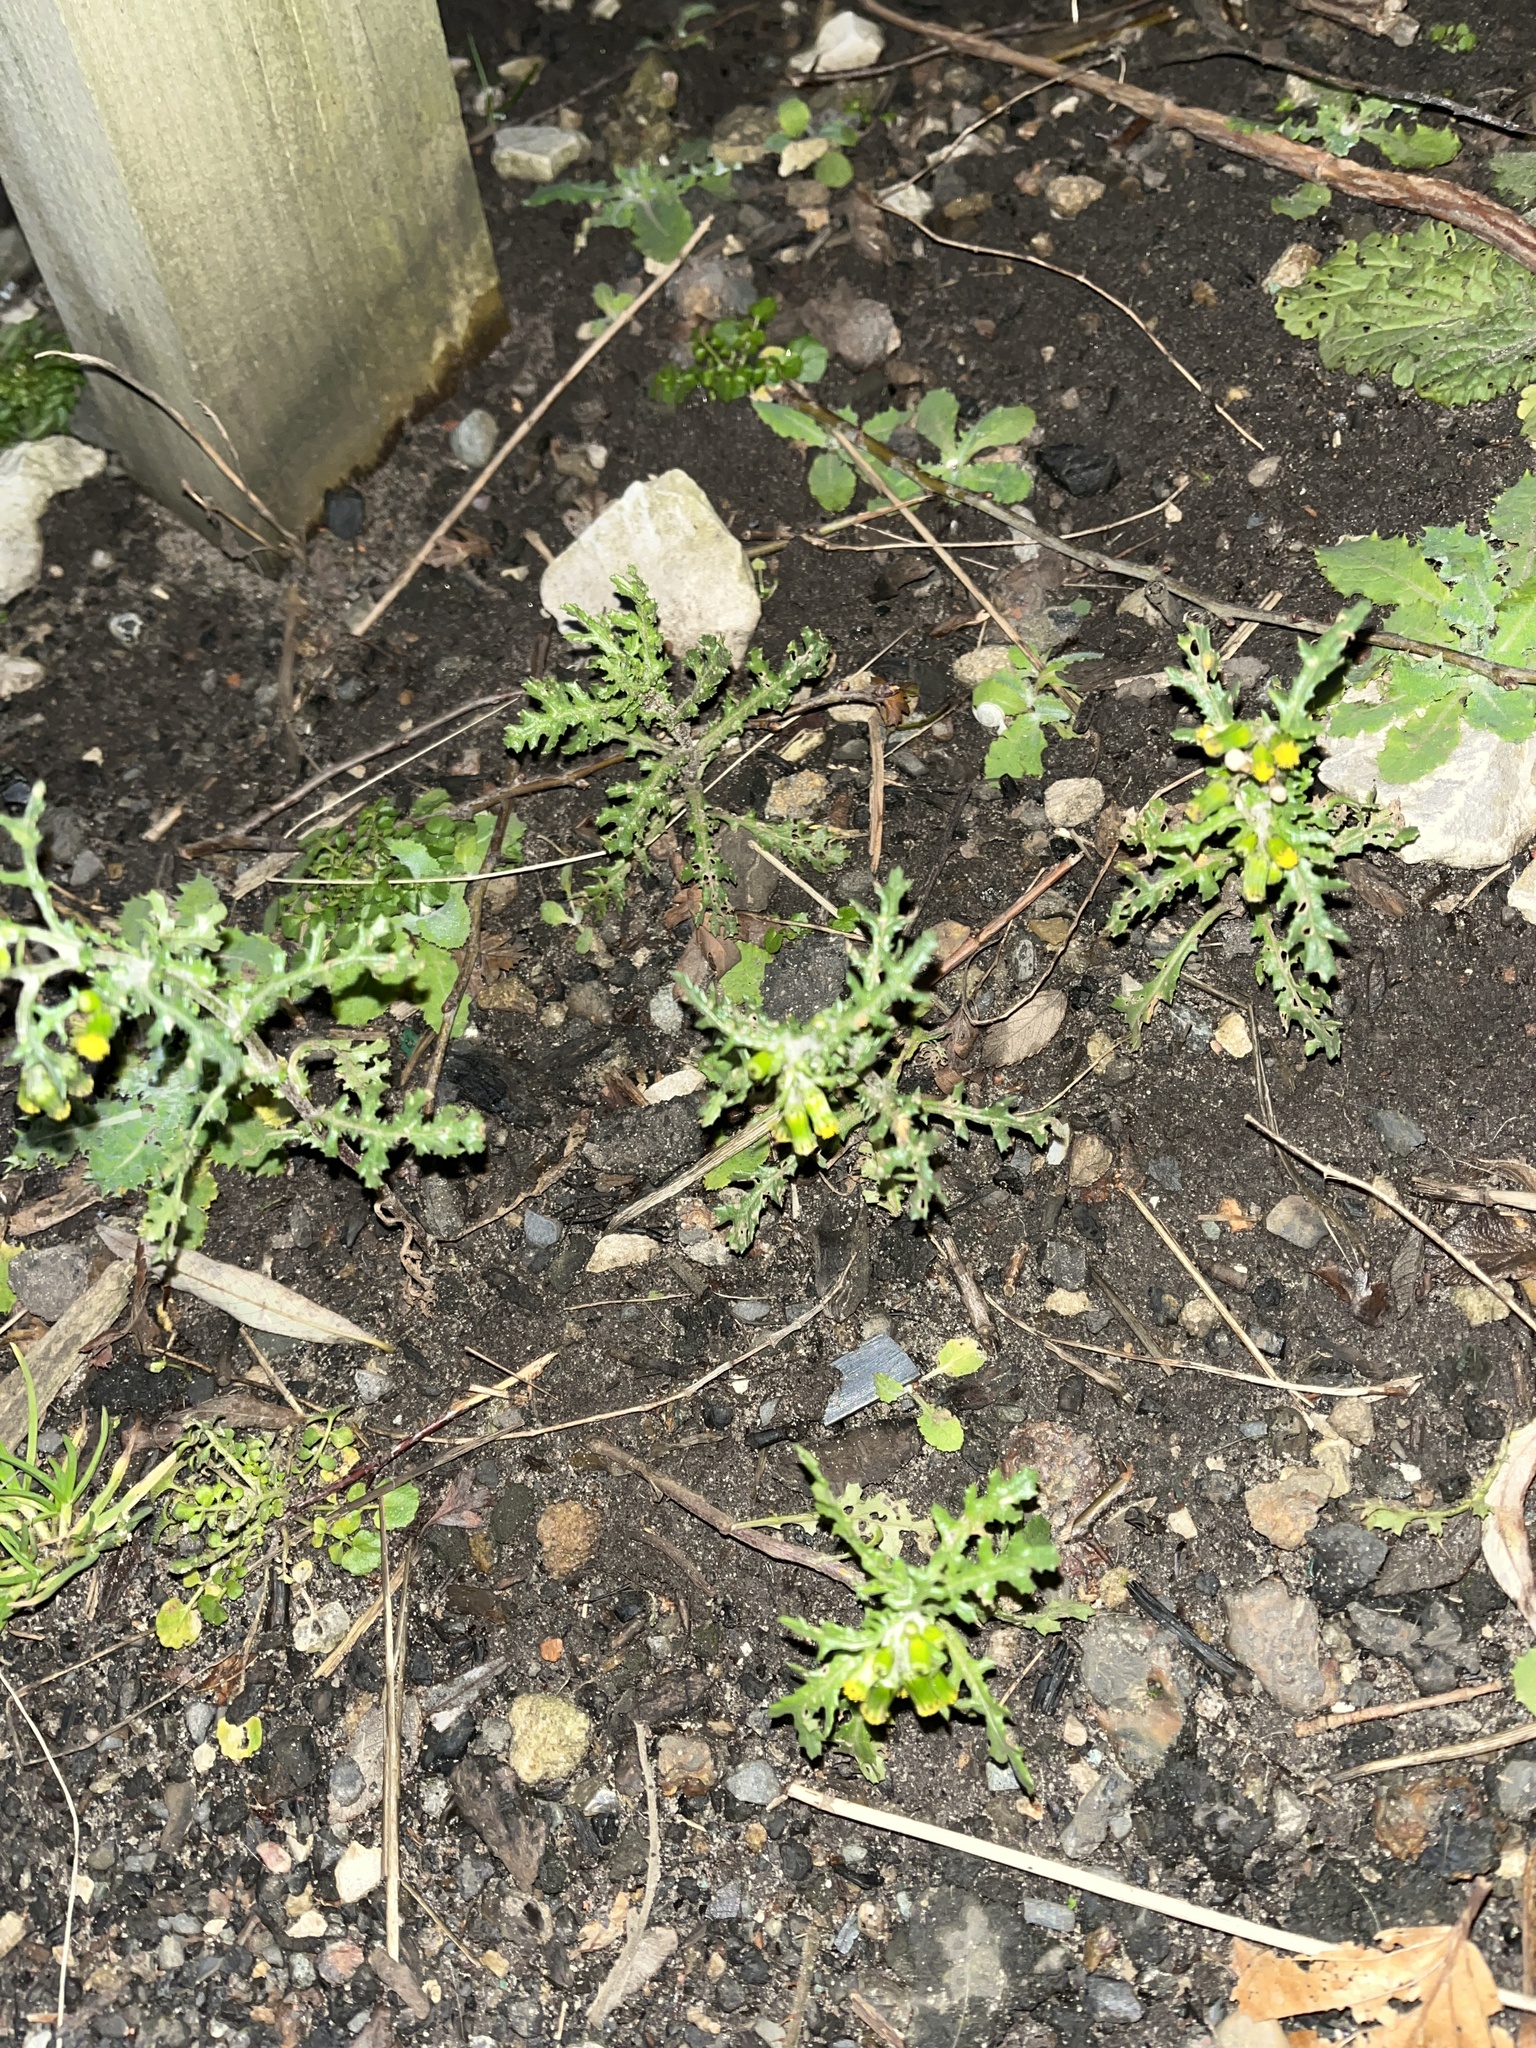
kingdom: Plantae
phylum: Tracheophyta
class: Magnoliopsida
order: Asterales
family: Asteraceae
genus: Senecio
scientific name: Senecio vulgaris
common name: Old-man-in-the-spring
